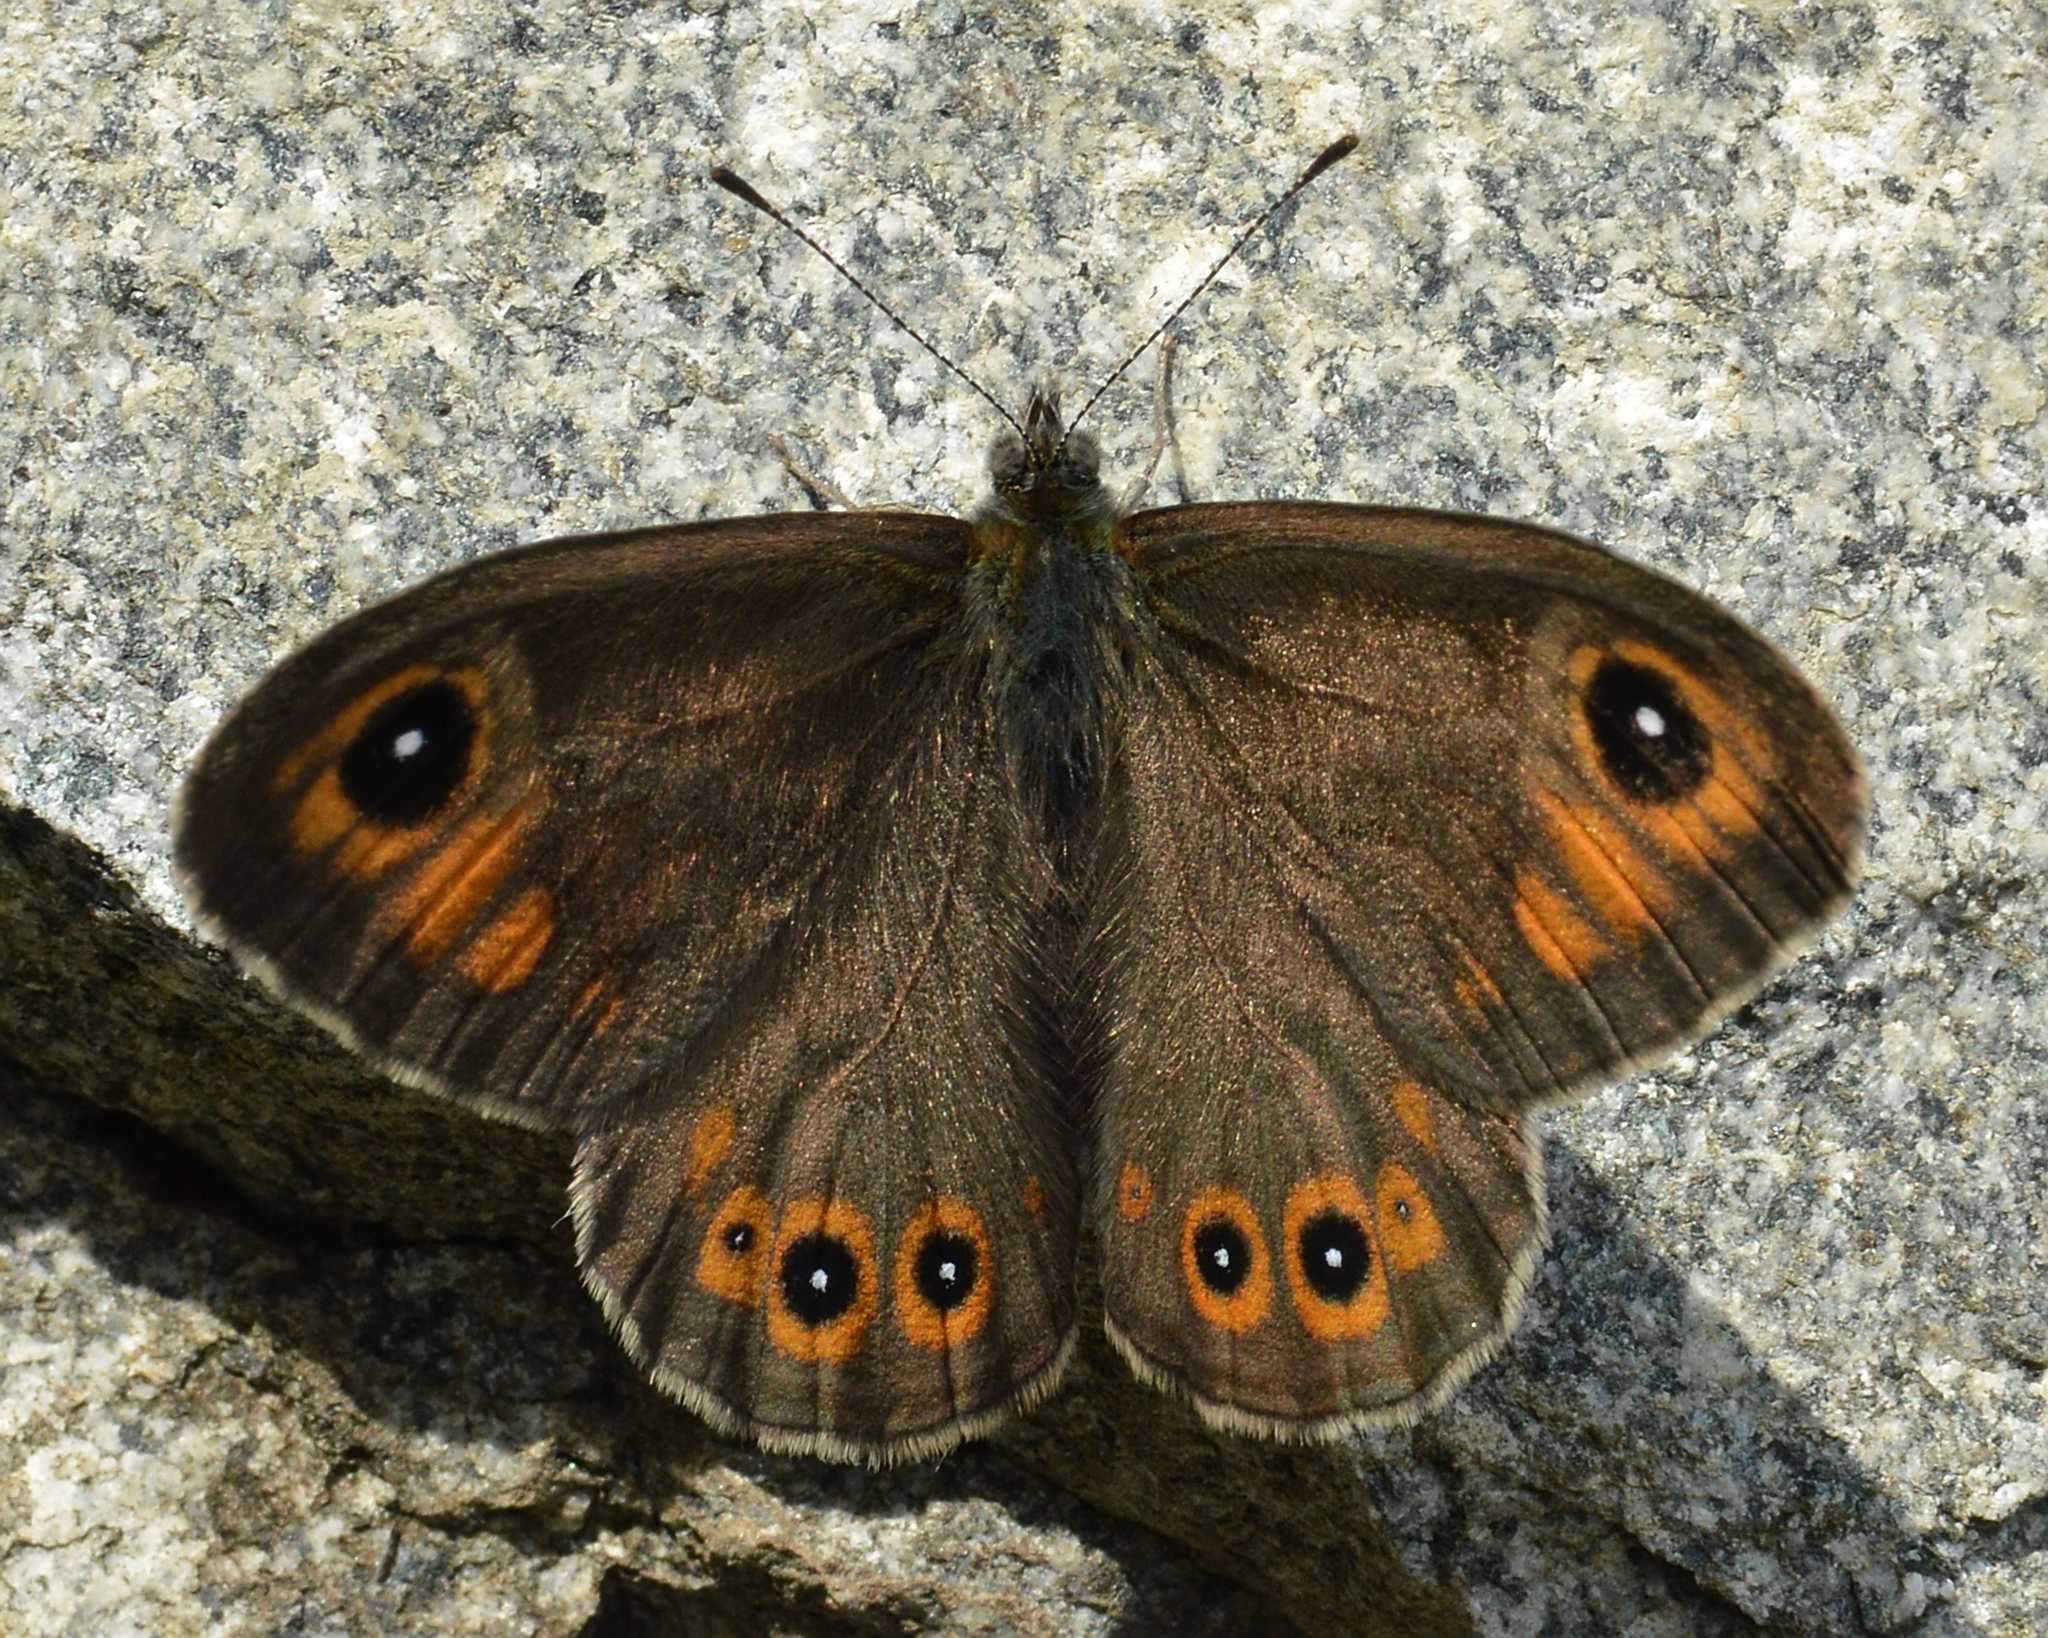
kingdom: Animalia
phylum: Arthropoda
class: Insecta
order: Lepidoptera
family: Nymphalidae
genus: Pararge
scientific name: Pararge Lasiommata maera
